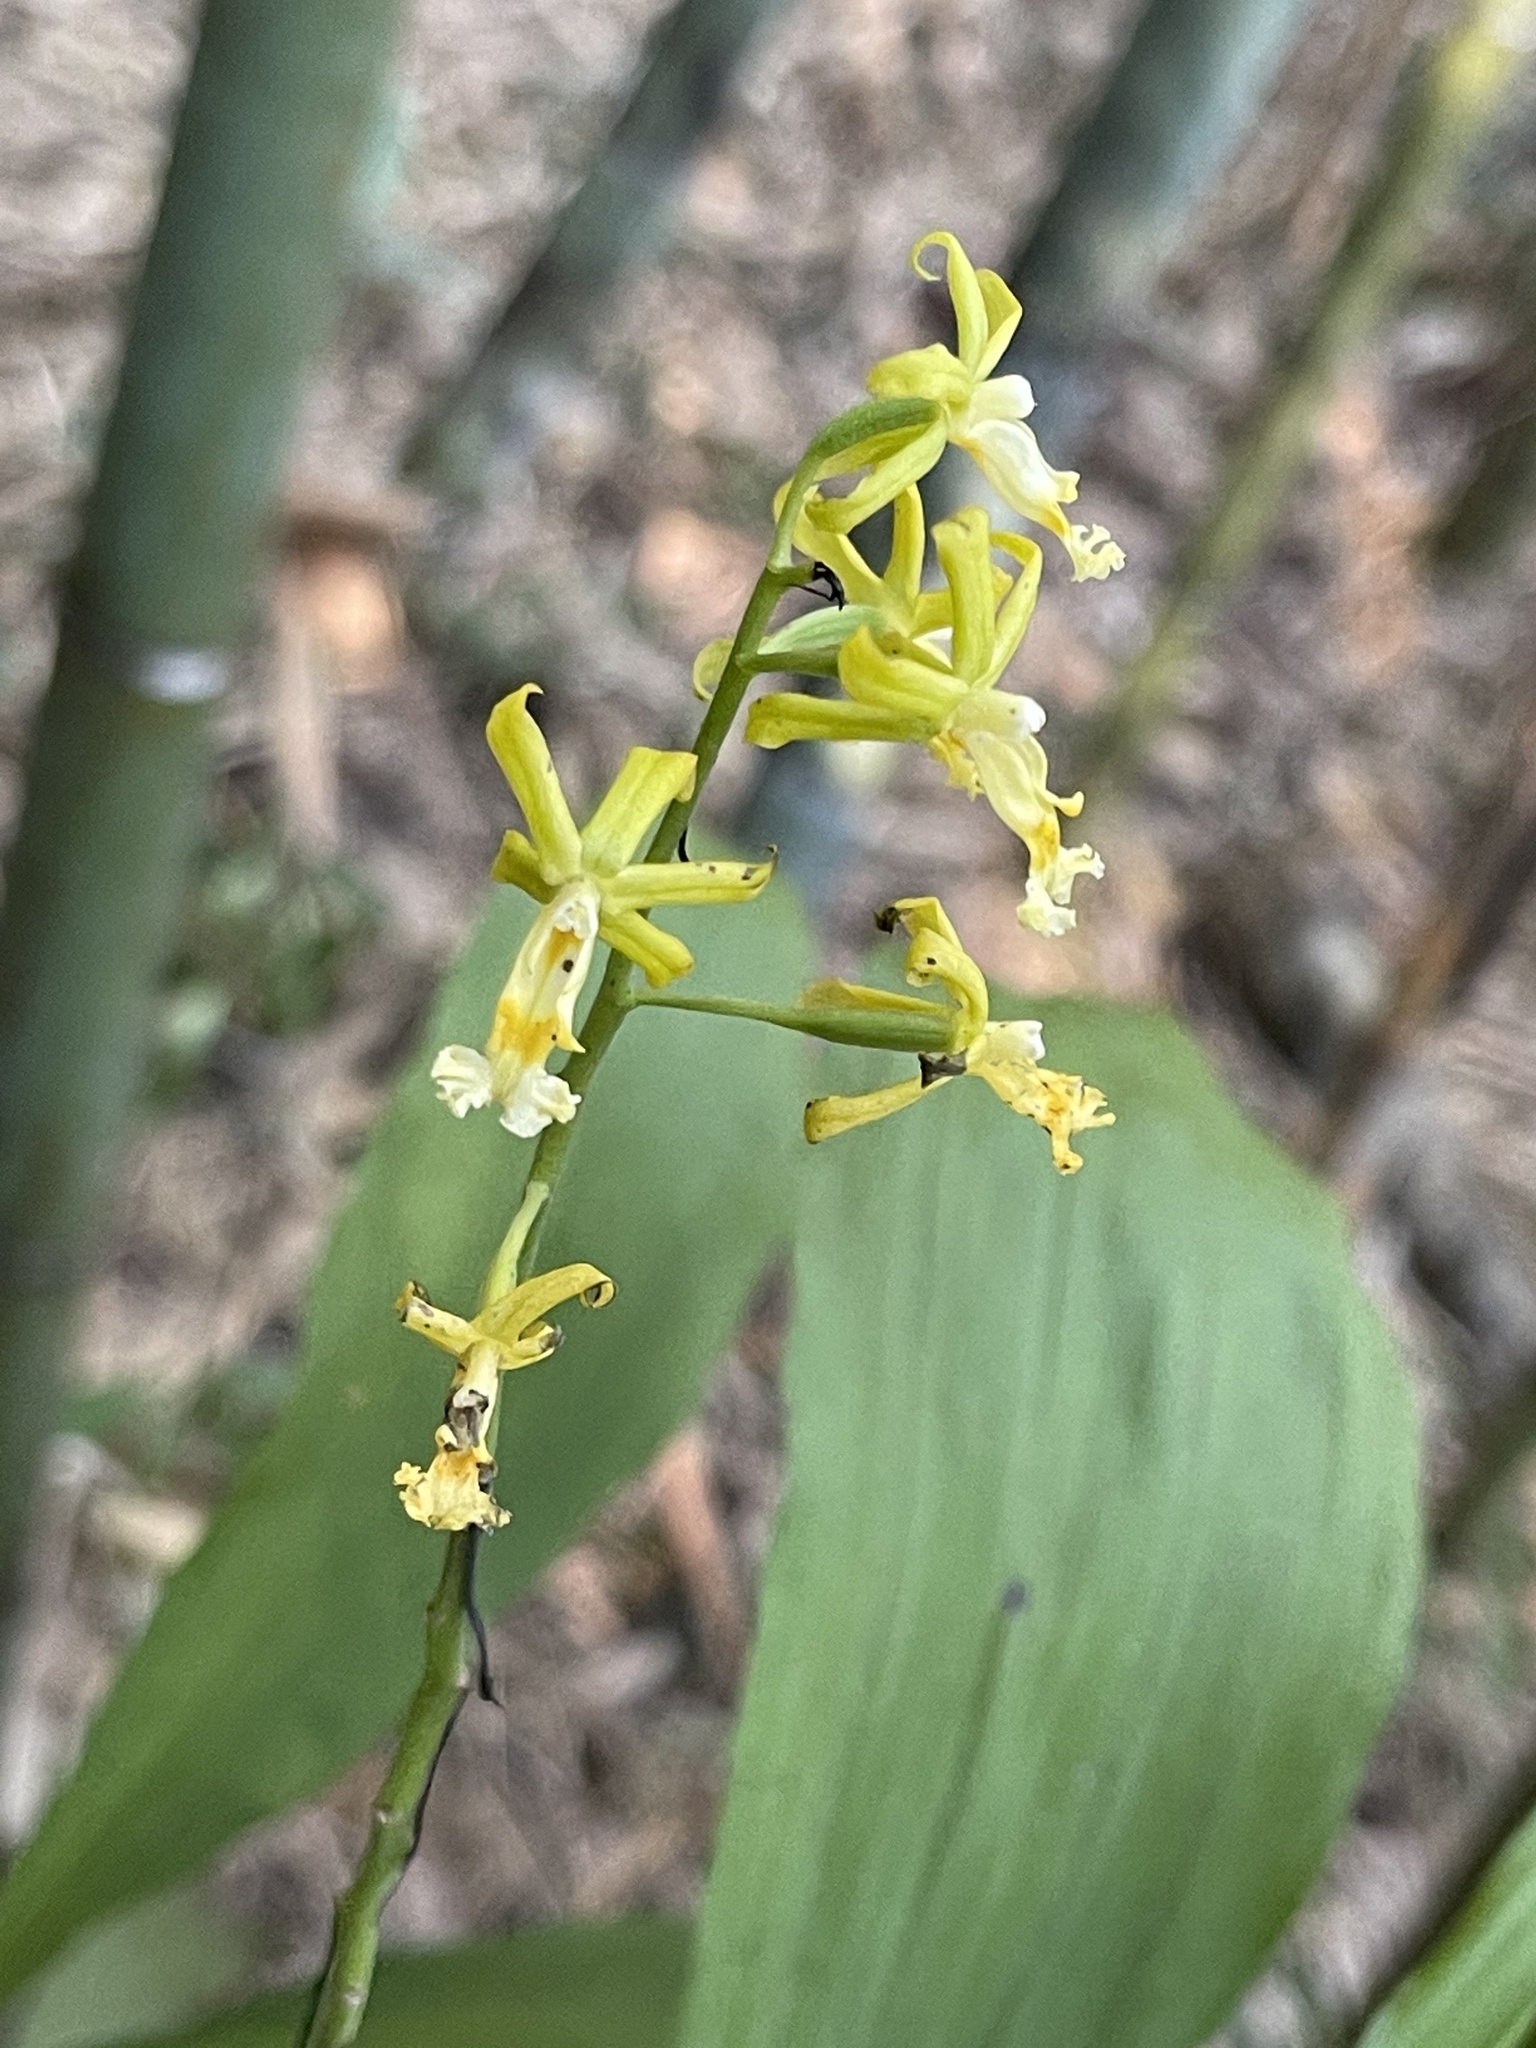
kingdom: Plantae
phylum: Tracheophyta
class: Liliopsida
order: Asparagales
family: Orchidaceae
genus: Calanthe
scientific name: Calanthe obcordata
